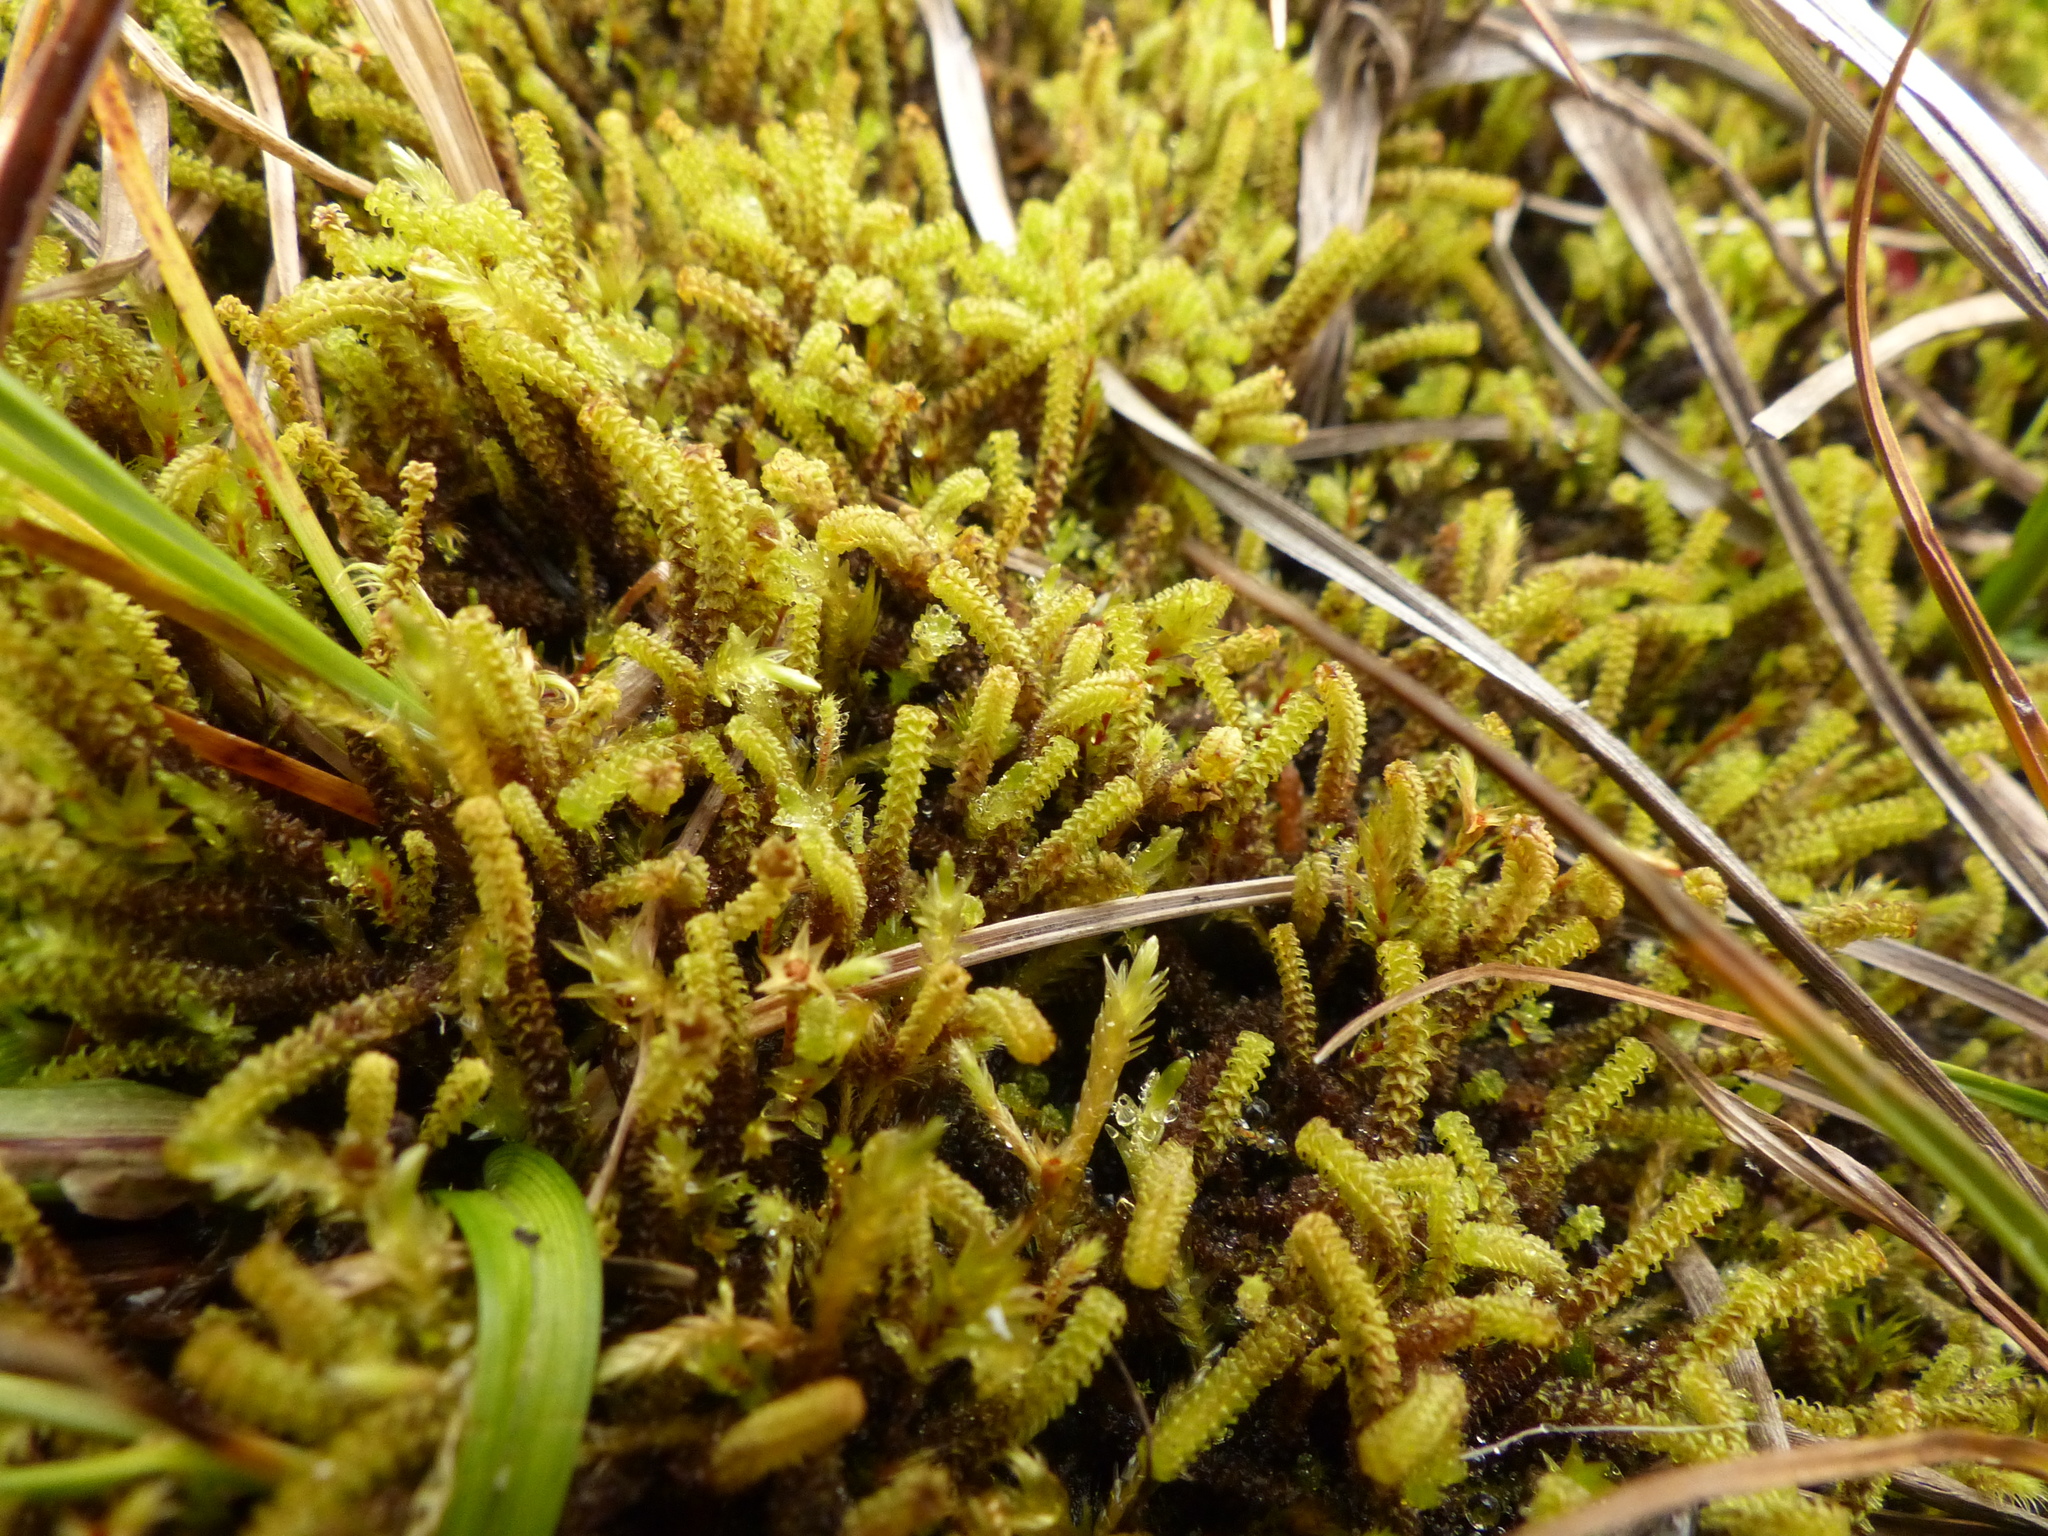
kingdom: Plantae
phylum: Bryophyta
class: Bryopsida
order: Splachnales
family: Meesiaceae
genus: Paludella
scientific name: Paludella squarrosa
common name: Tufted fen moss
